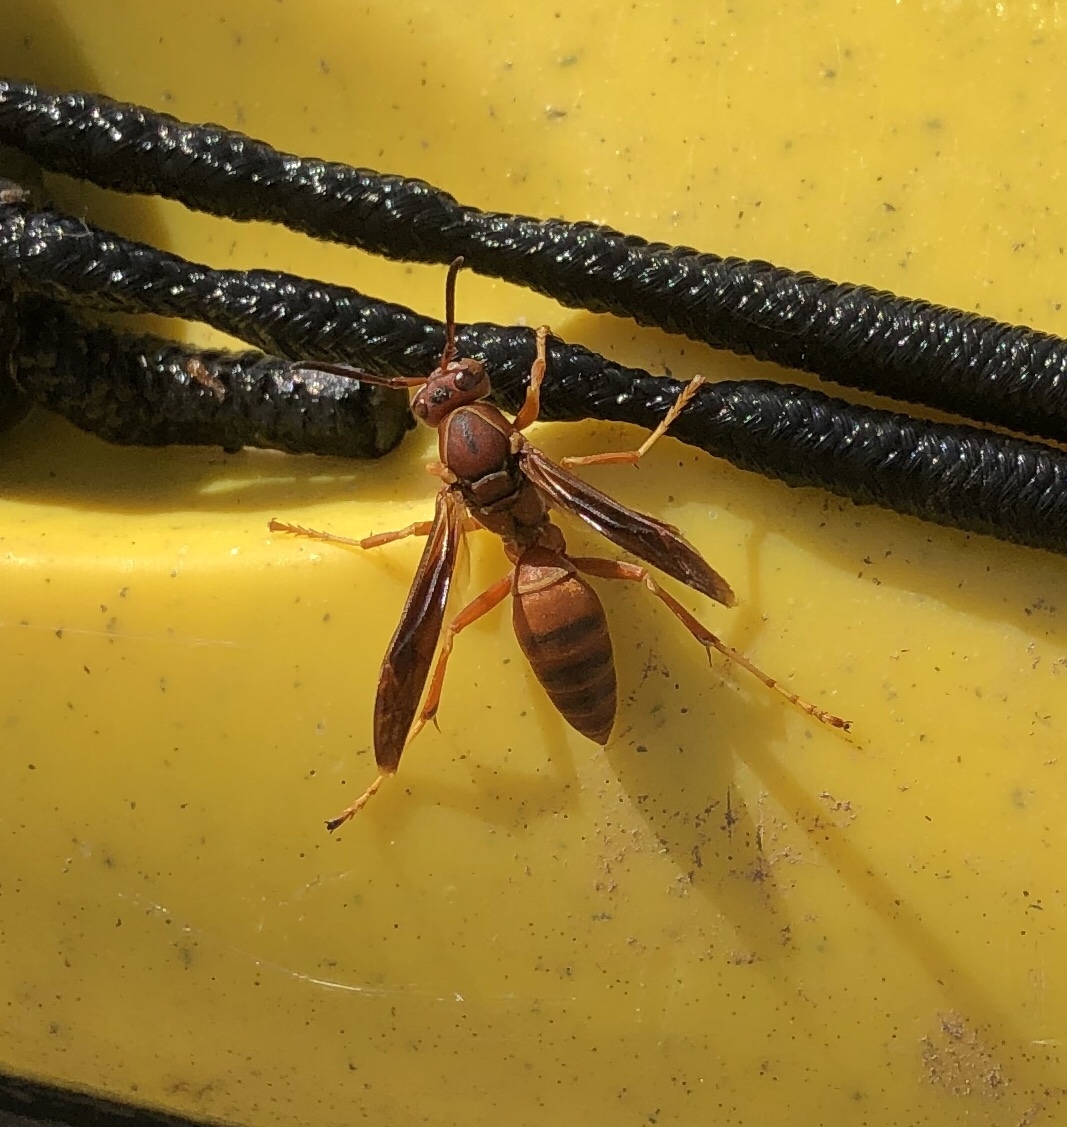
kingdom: Animalia
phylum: Arthropoda
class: Insecta
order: Hymenoptera
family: Vespidae
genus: Fuscopolistes
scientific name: Fuscopolistes
